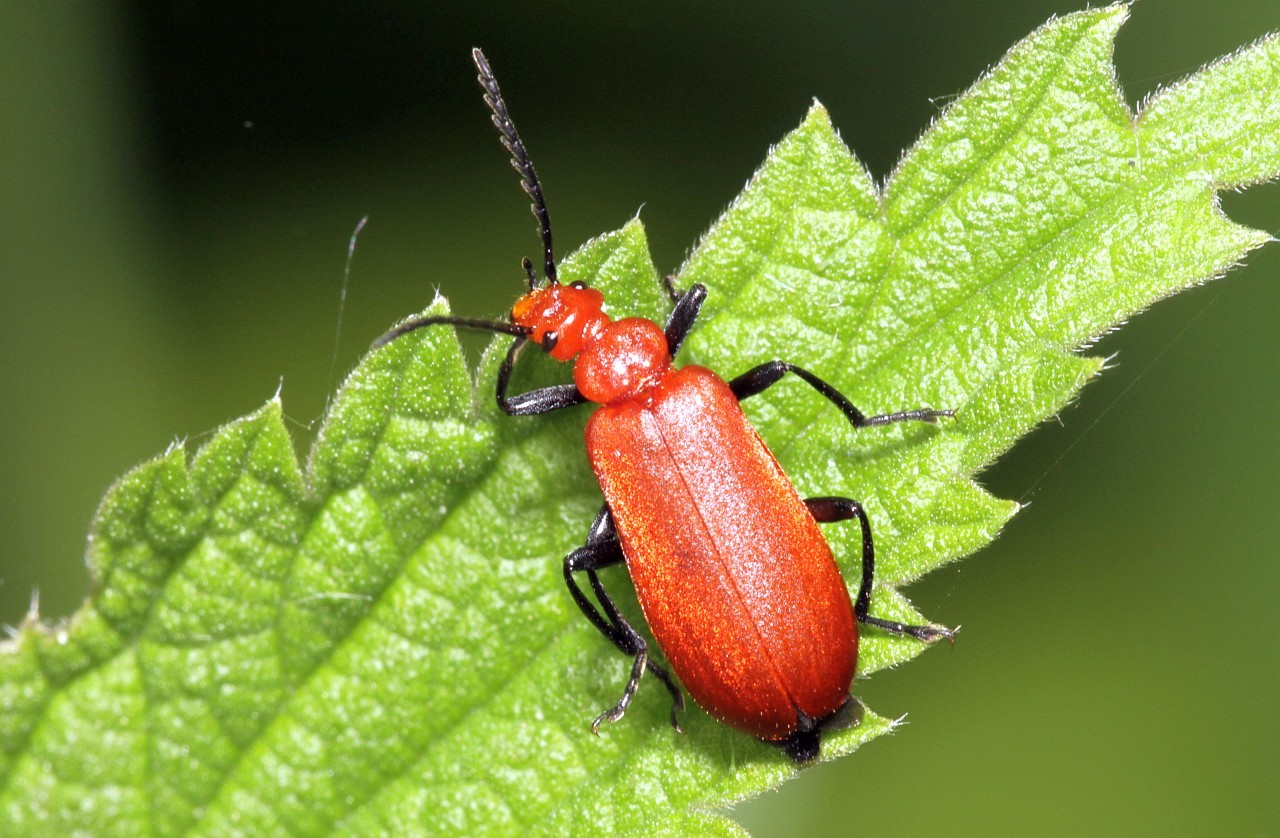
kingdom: Animalia
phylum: Arthropoda
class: Insecta
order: Coleoptera
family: Pyrochroidae
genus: Pyrochroa
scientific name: Pyrochroa serraticornis
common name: Red-headed cardinal beetle
